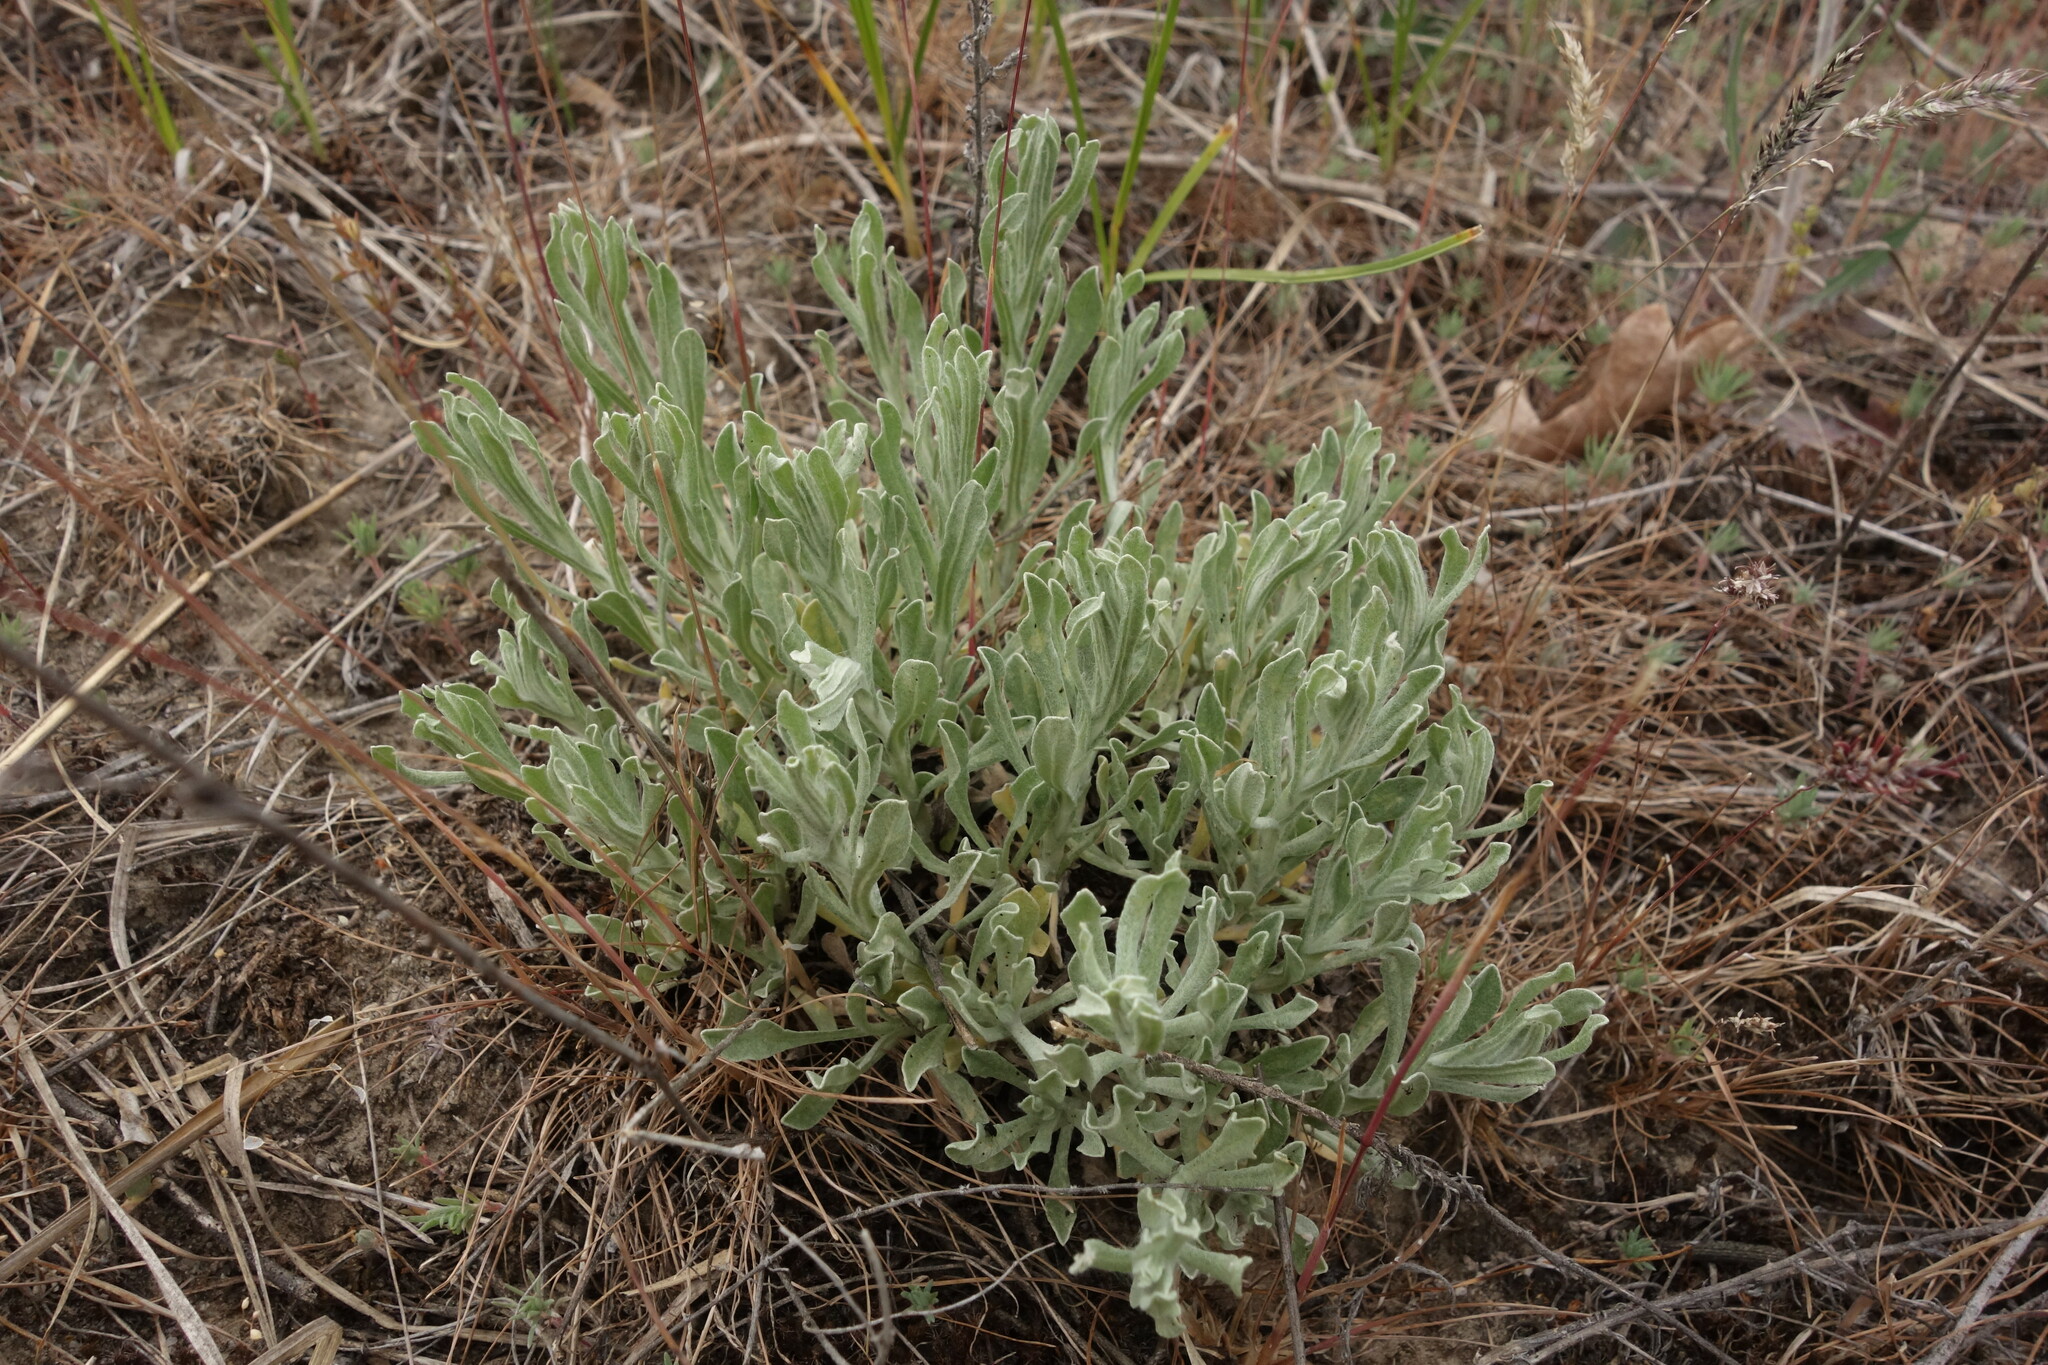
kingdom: Plantae
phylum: Tracheophyta
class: Magnoliopsida
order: Asterales
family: Asteraceae
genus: Galatella
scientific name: Galatella villosa
